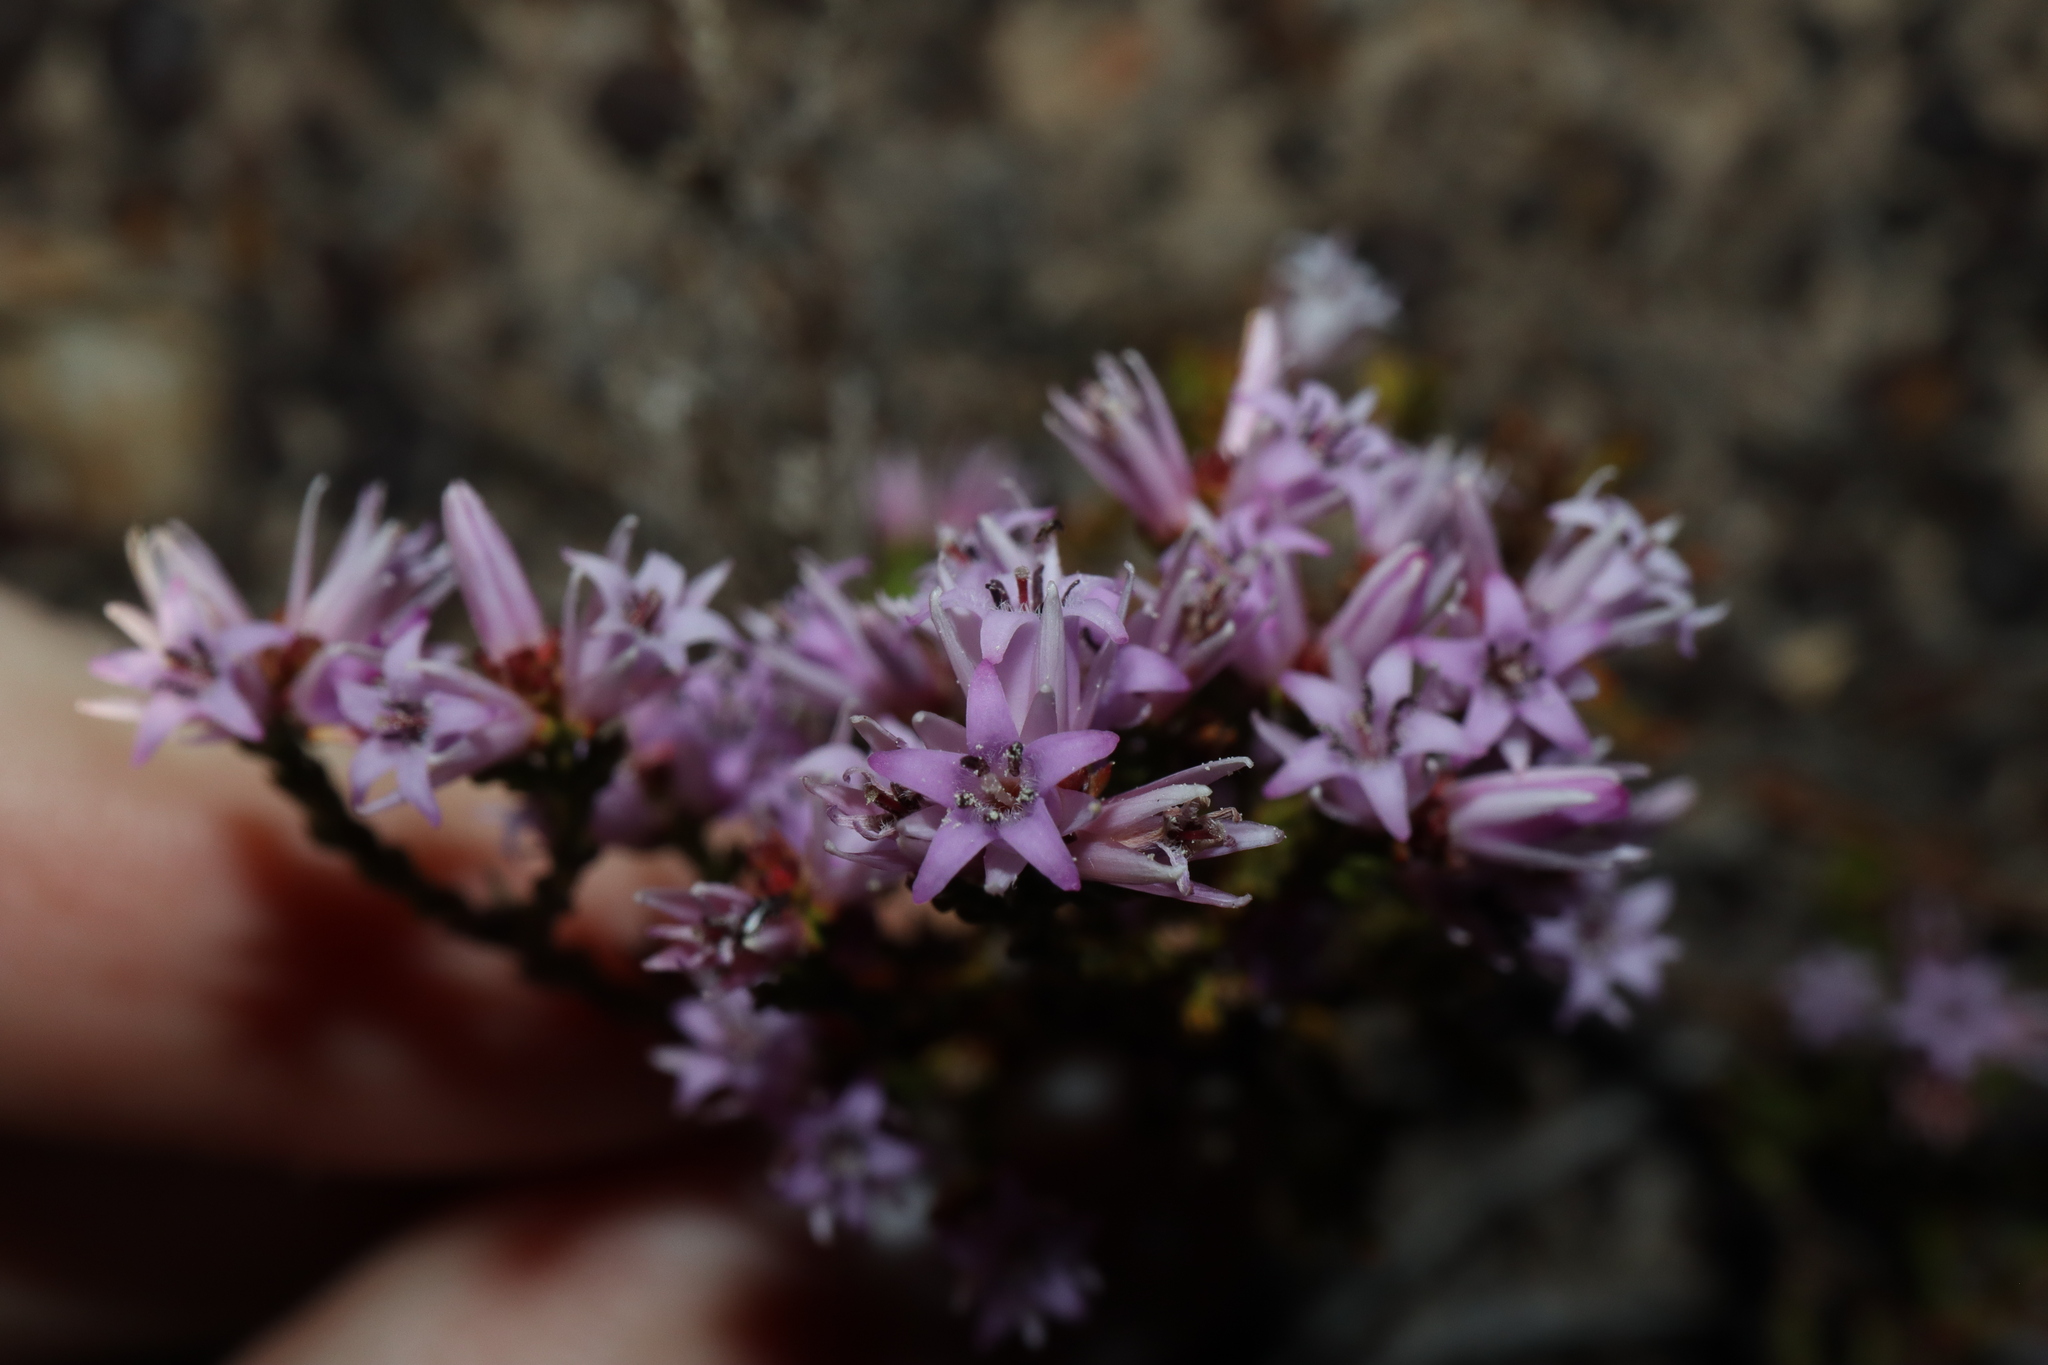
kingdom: Plantae
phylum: Tracheophyta
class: Magnoliopsida
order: Ericales
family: Ericaceae
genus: Andersonia
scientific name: Andersonia parvifolia
